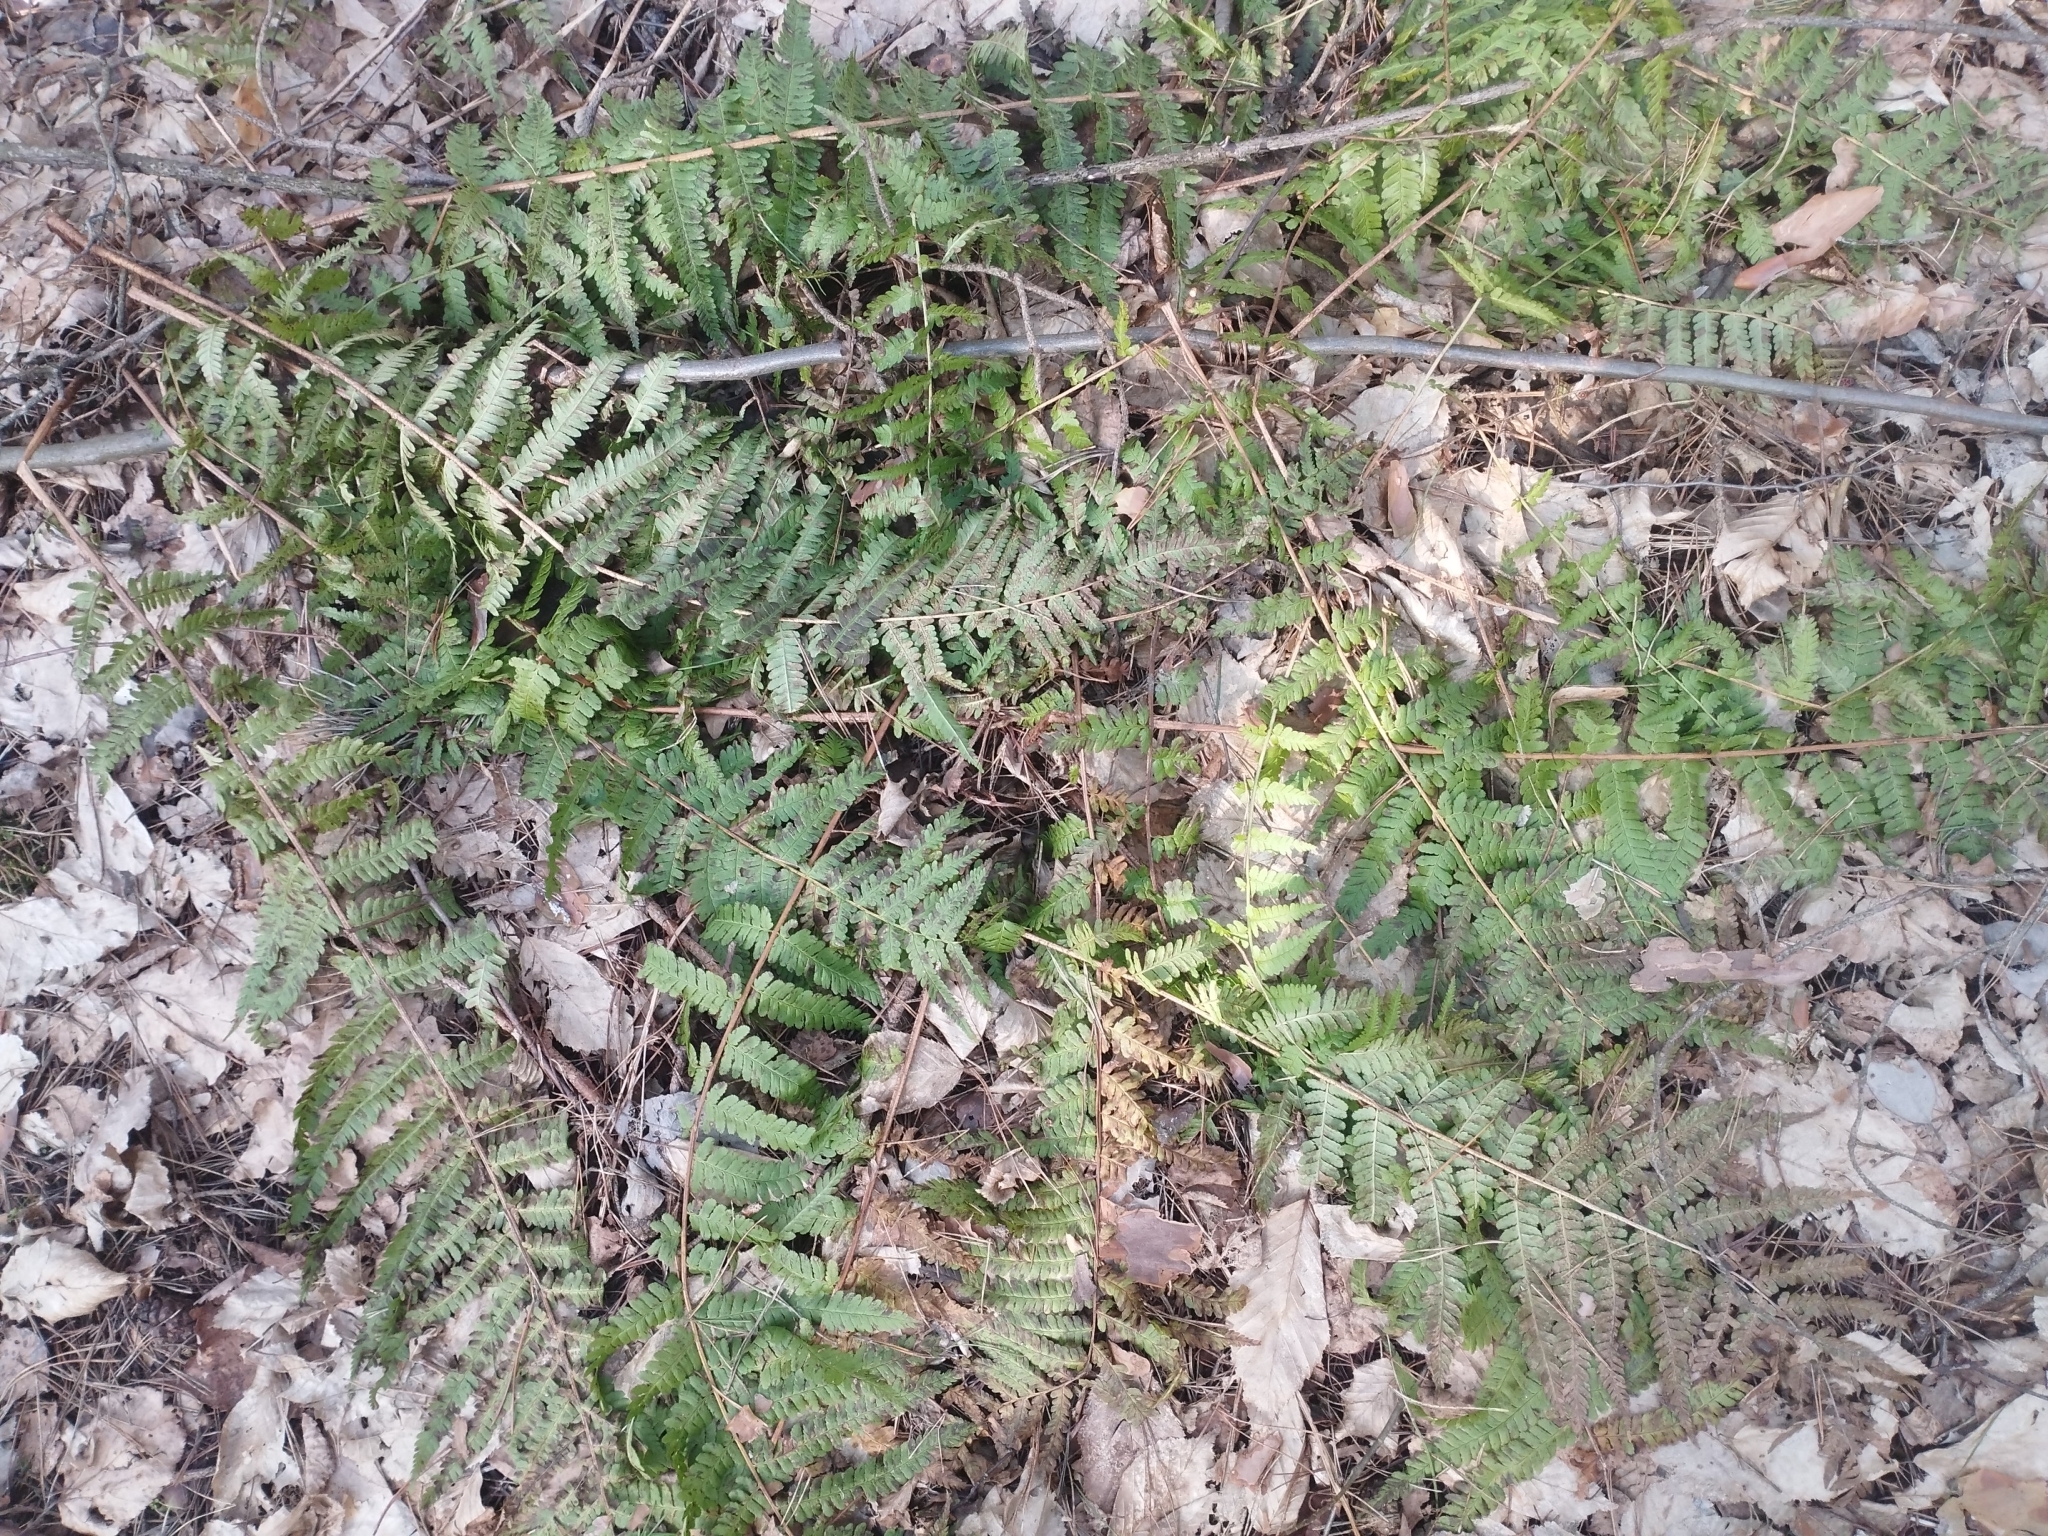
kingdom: Plantae
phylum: Tracheophyta
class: Polypodiopsida
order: Polypodiales
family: Dryopteridaceae
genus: Dryopteris
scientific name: Dryopteris filix-mas
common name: Male fern
